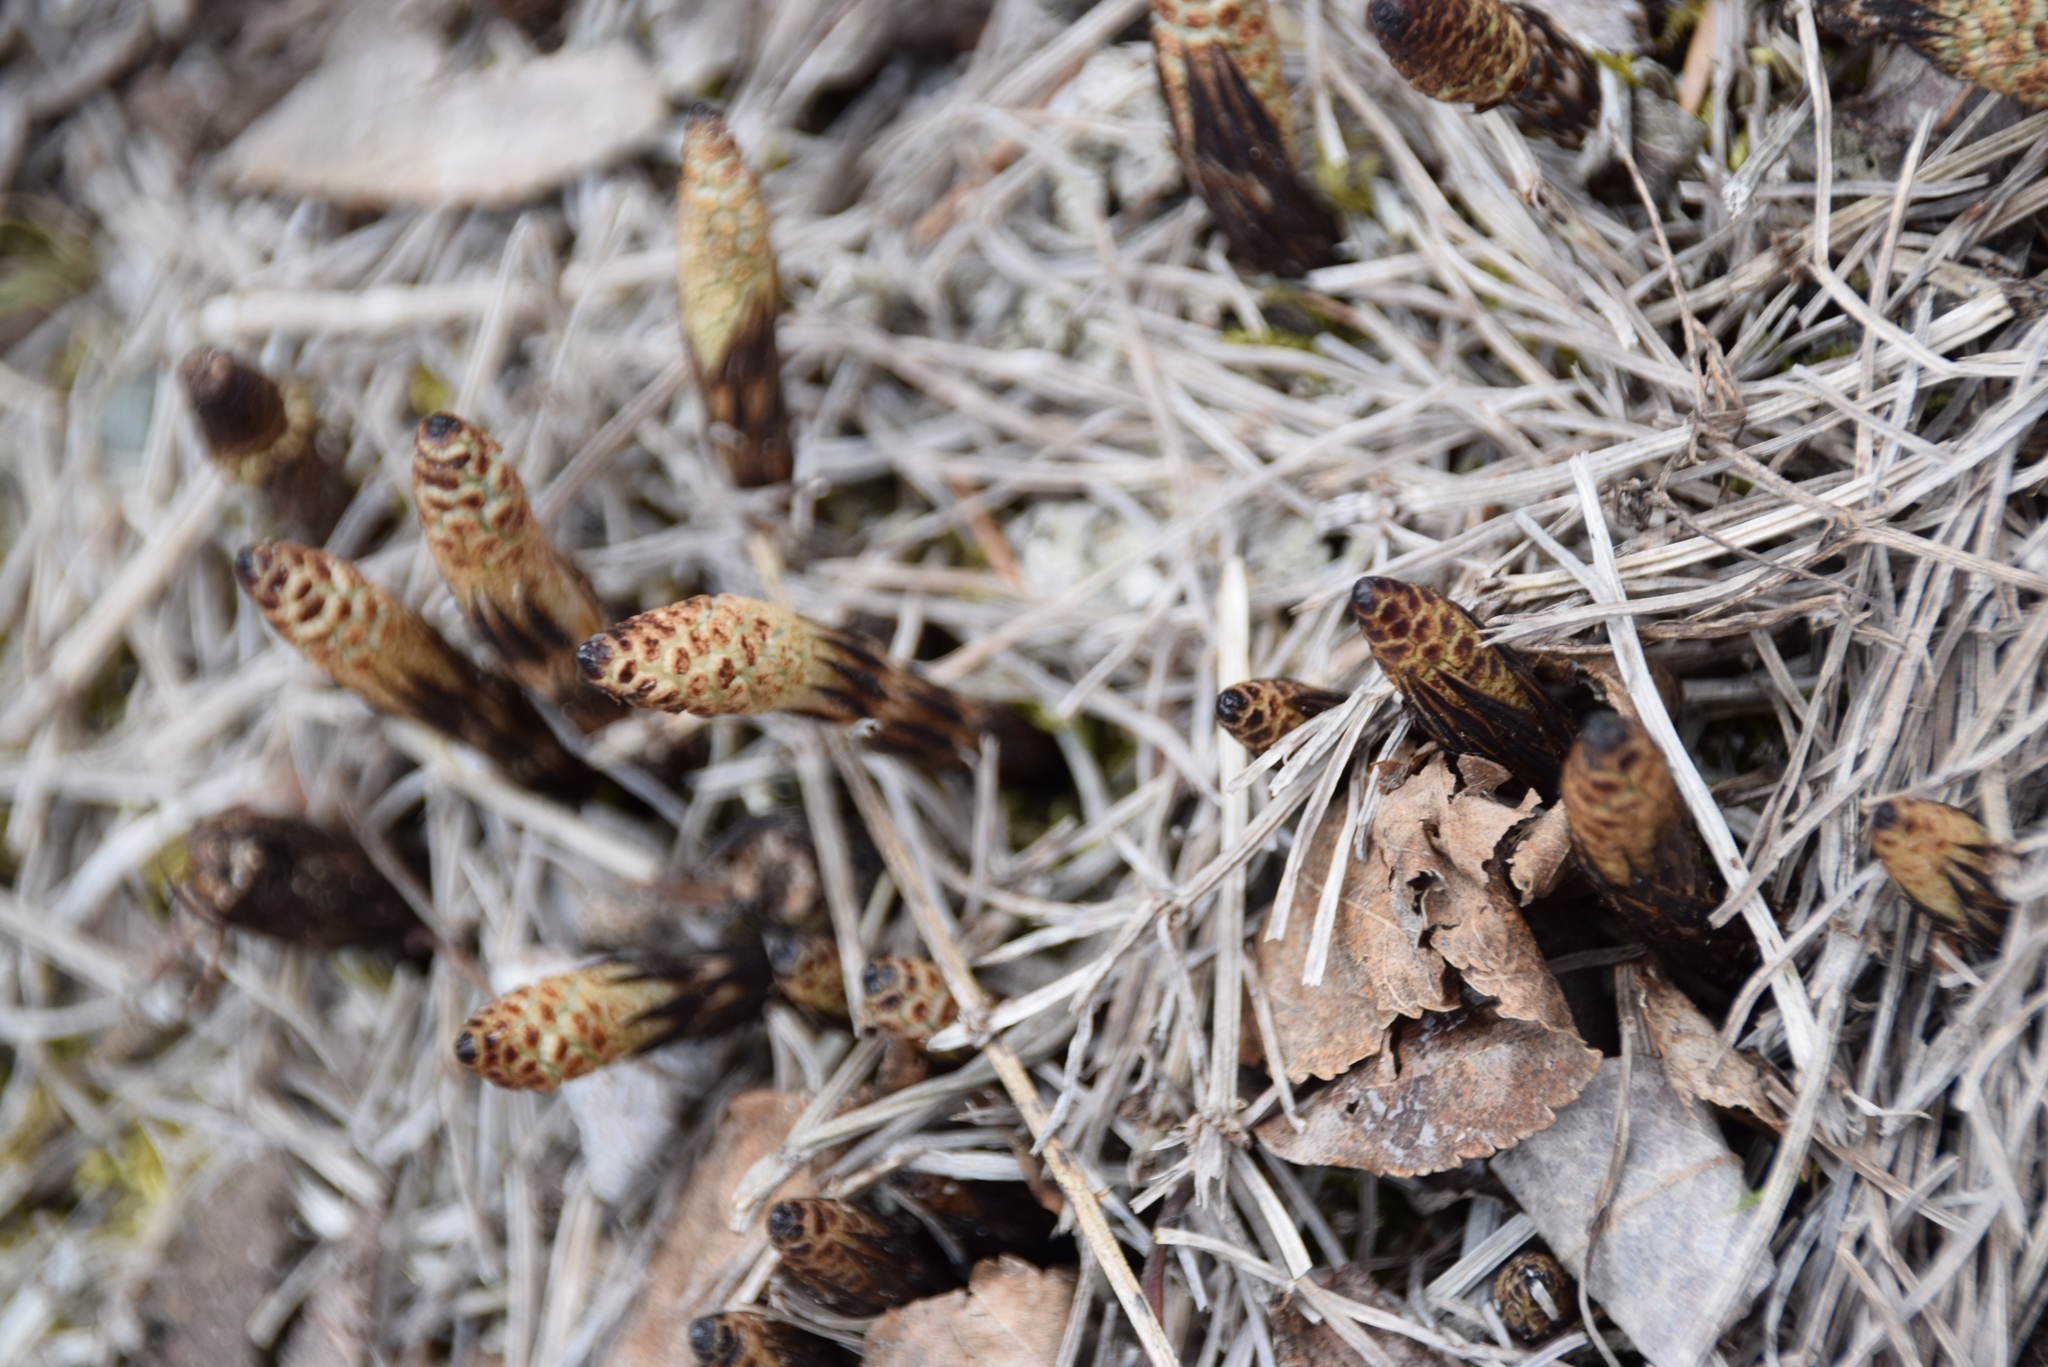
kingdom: Plantae
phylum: Tracheophyta
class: Polypodiopsida
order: Equisetales
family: Equisetaceae
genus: Equisetum
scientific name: Equisetum arvense
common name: Field horsetail
